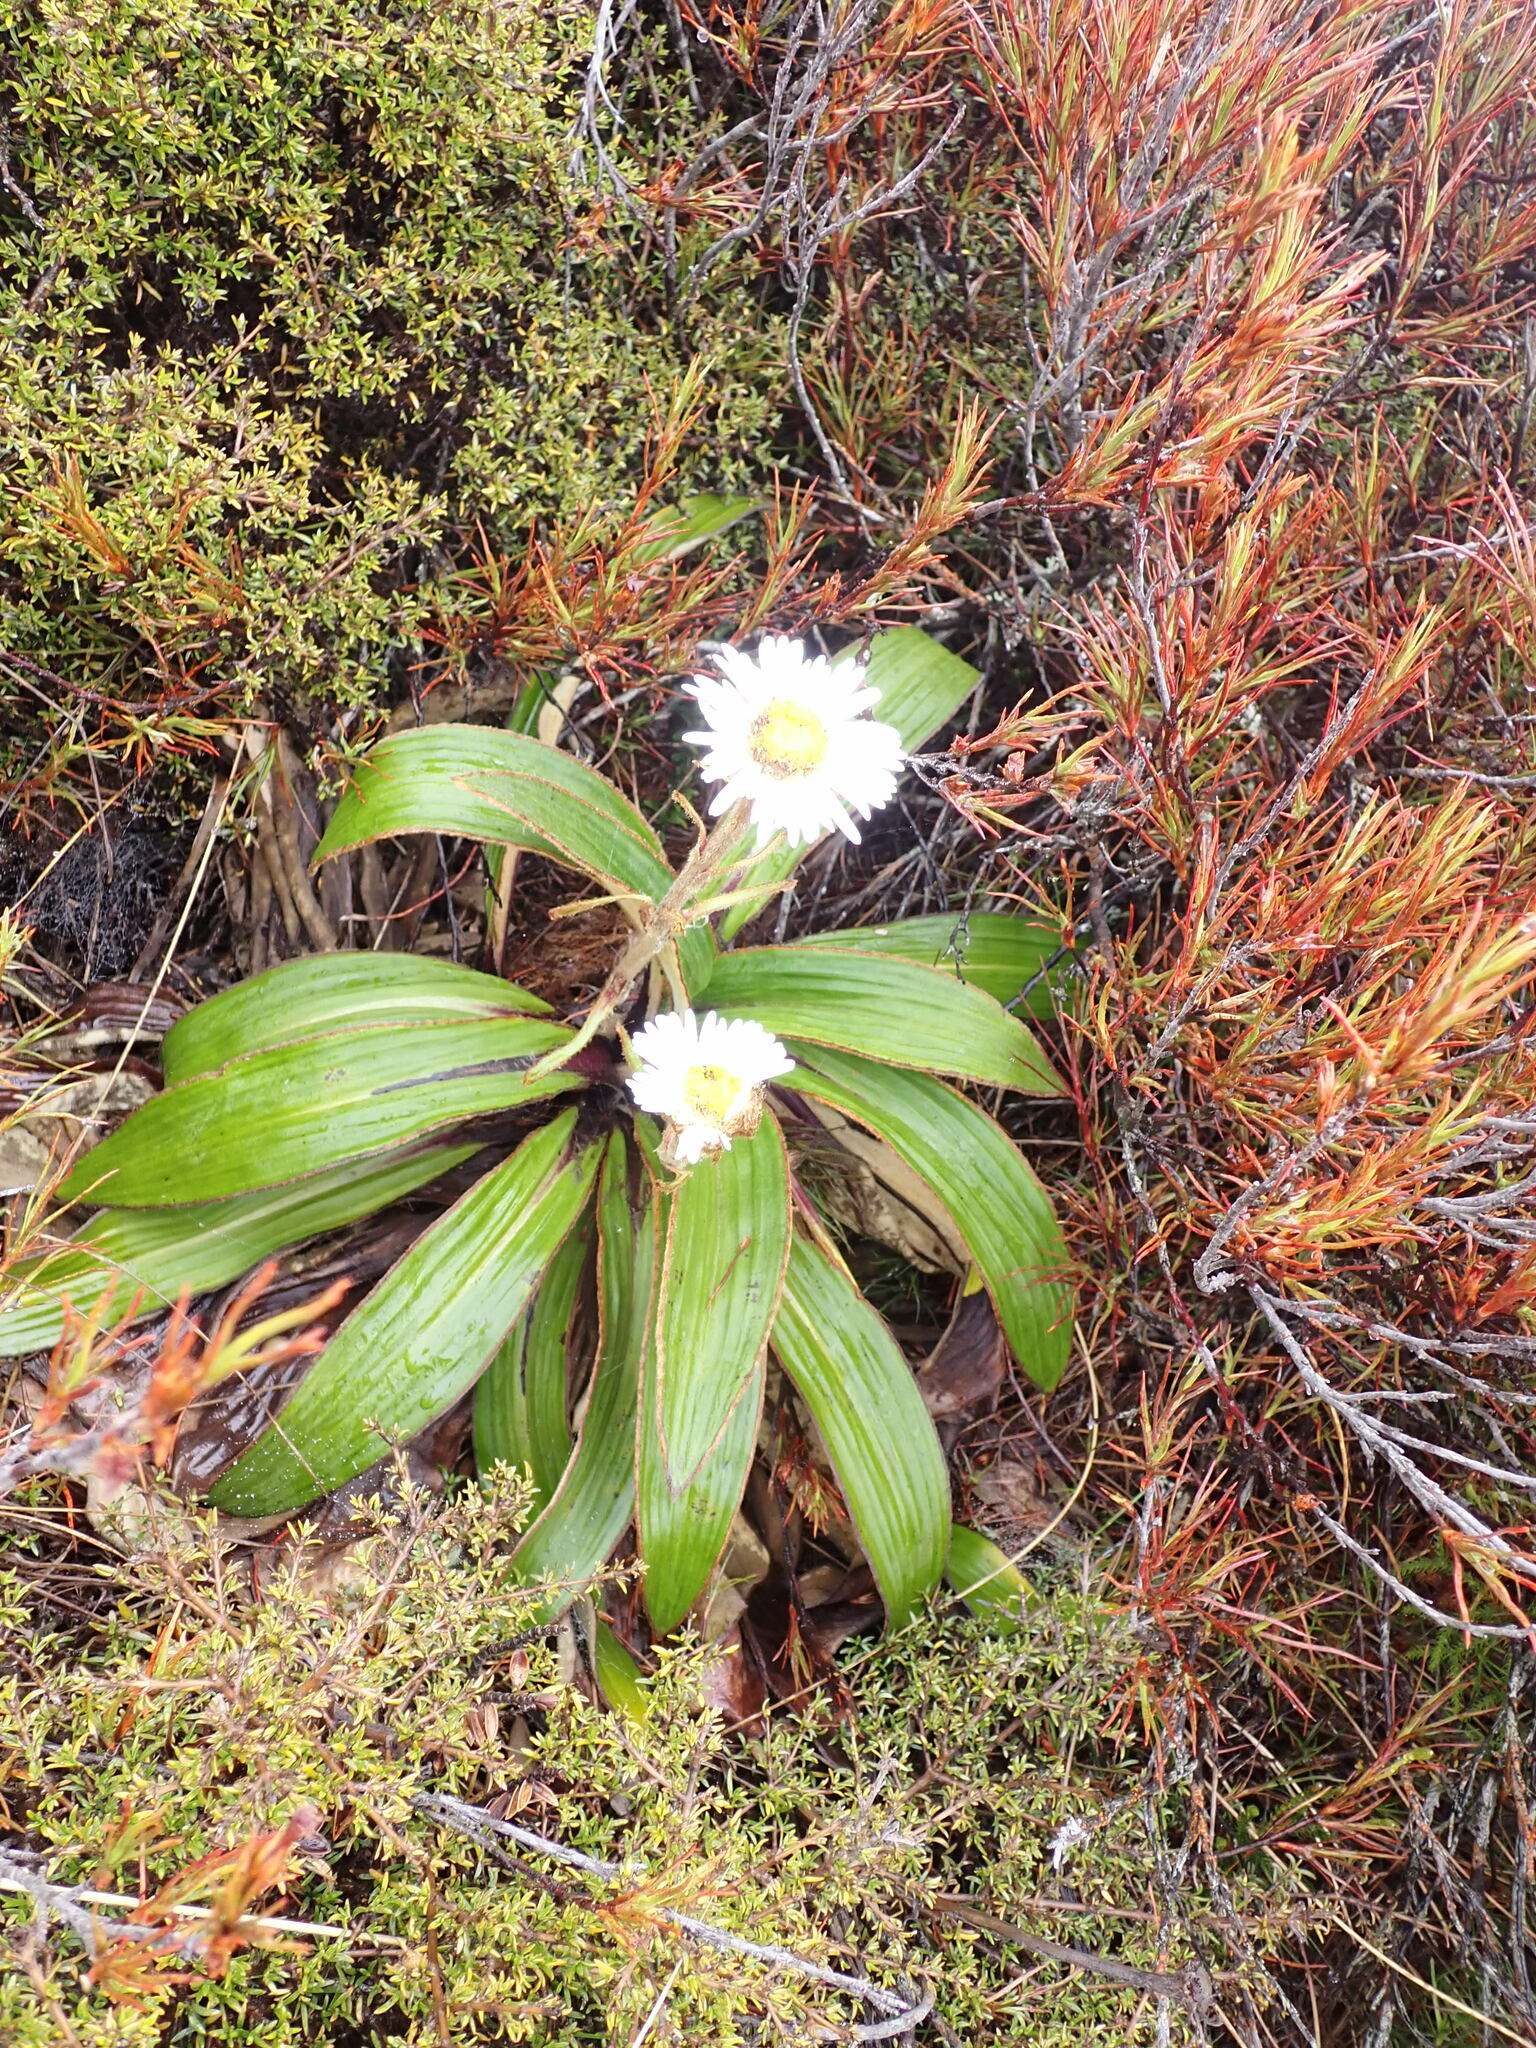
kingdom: Plantae
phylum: Tracheophyta
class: Magnoliopsida
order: Asterales
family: Asteraceae
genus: Celmisia
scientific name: Celmisia verbascifolia
